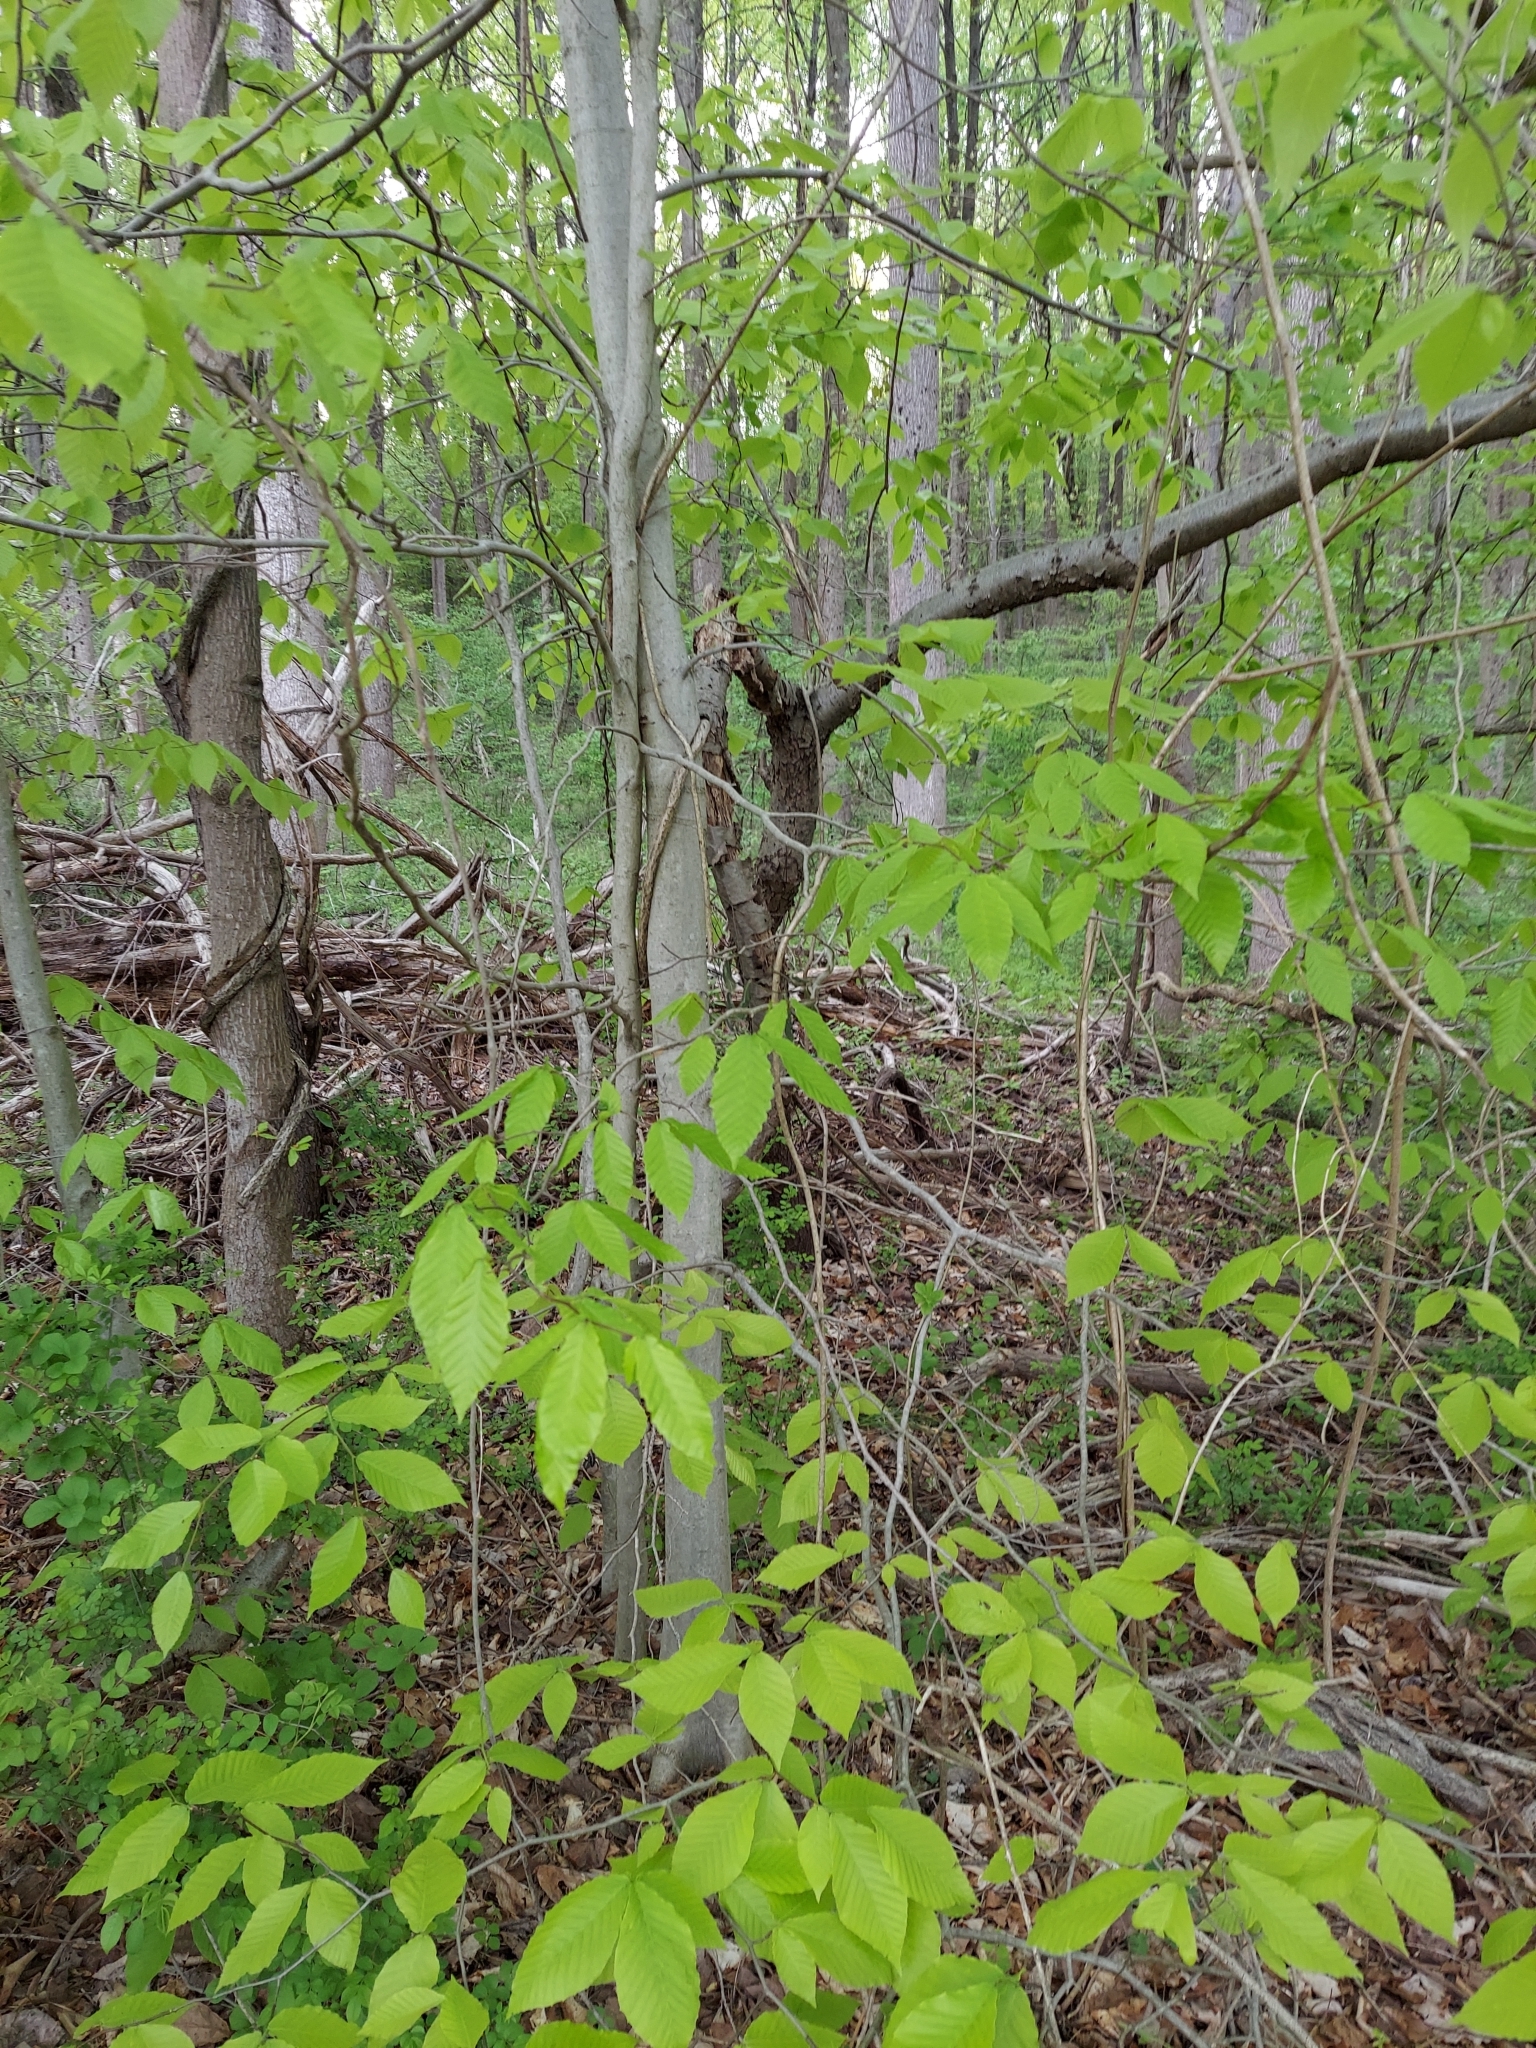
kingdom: Plantae
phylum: Tracheophyta
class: Magnoliopsida
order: Fagales
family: Fagaceae
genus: Fagus
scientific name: Fagus grandifolia
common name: American beech
